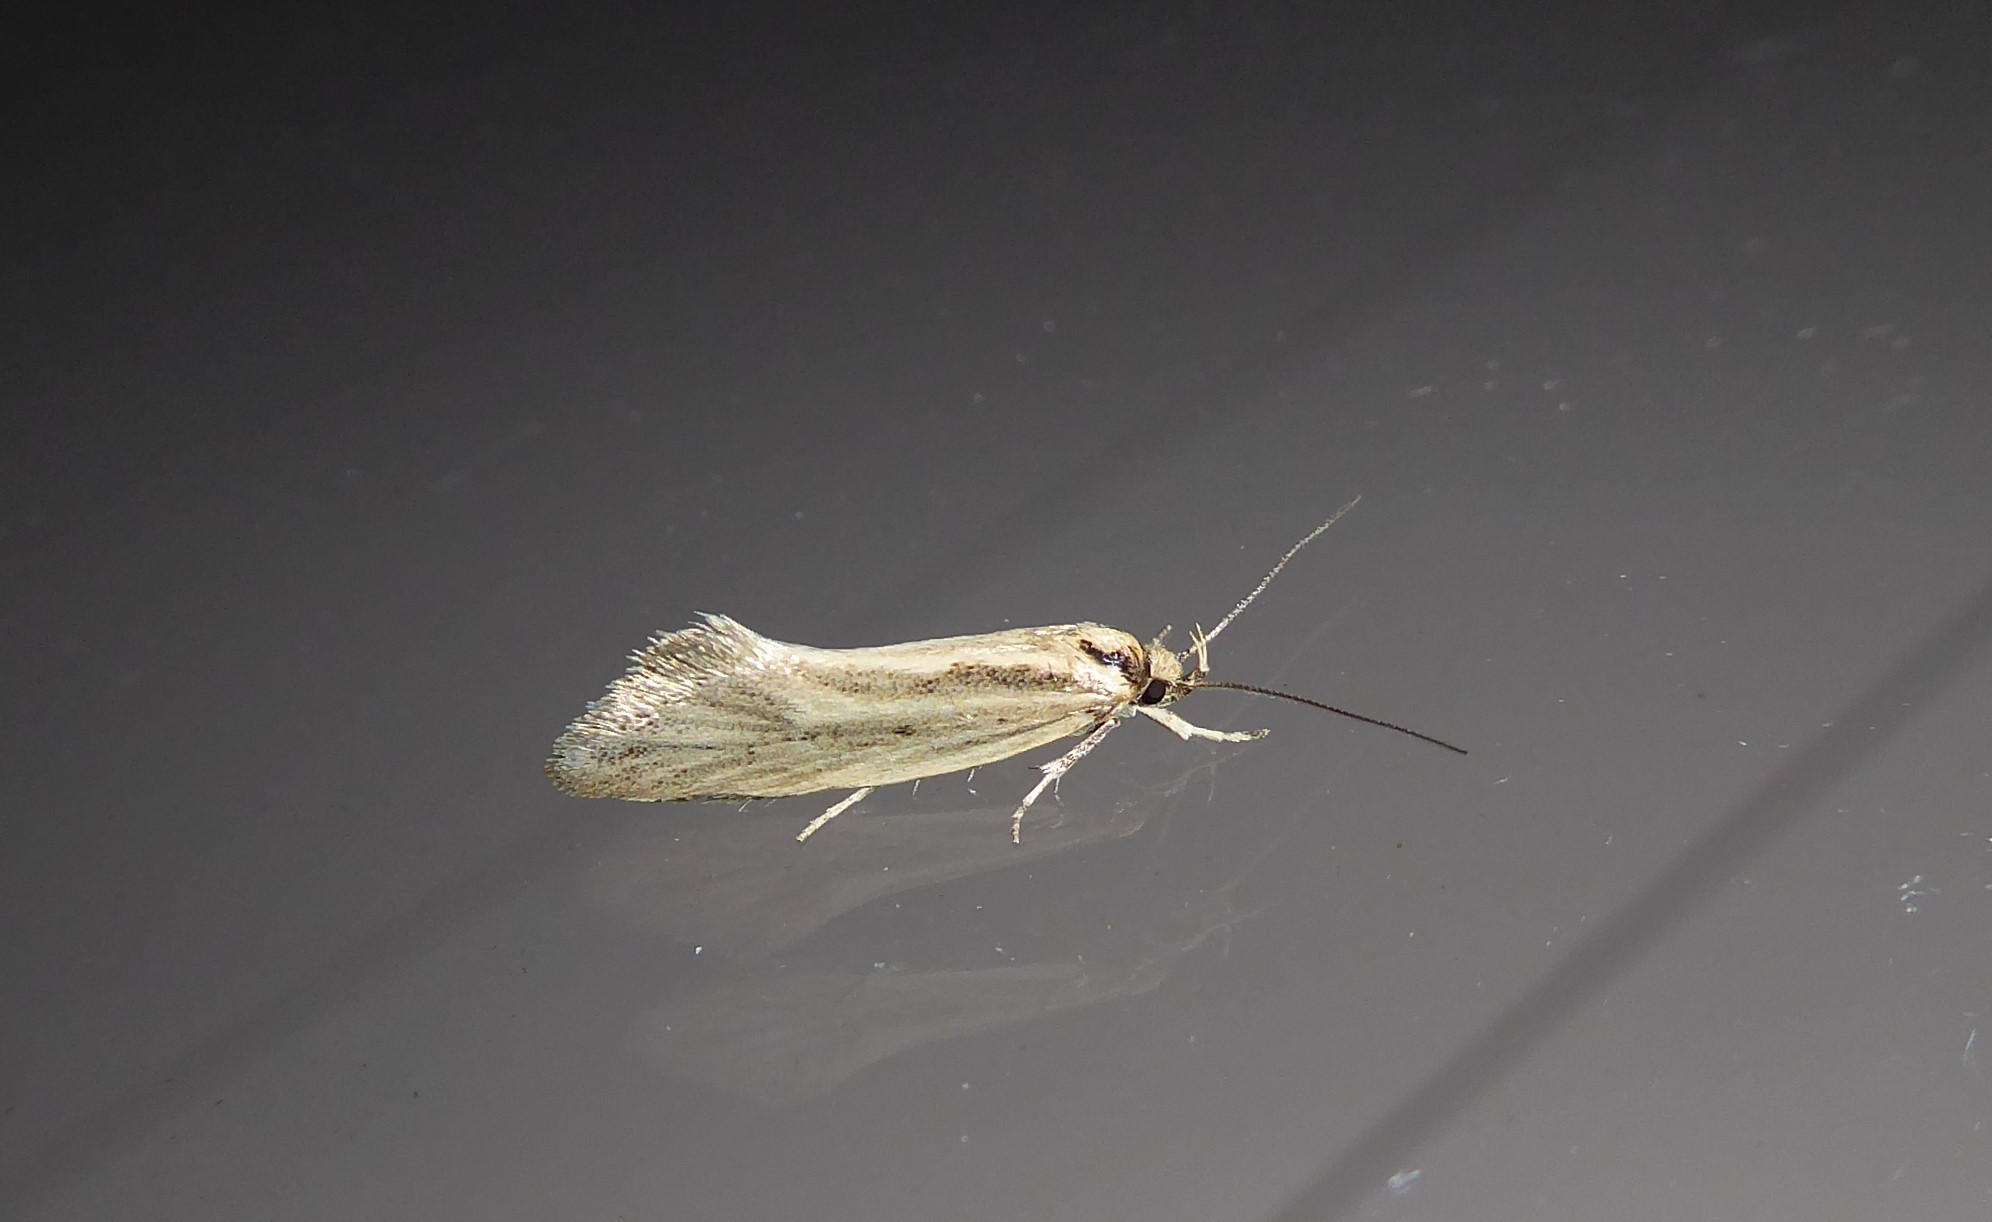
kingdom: Animalia
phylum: Arthropoda
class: Insecta
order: Lepidoptera
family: Oecophoridae
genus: Tingena
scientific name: Tingena chloradelpha
